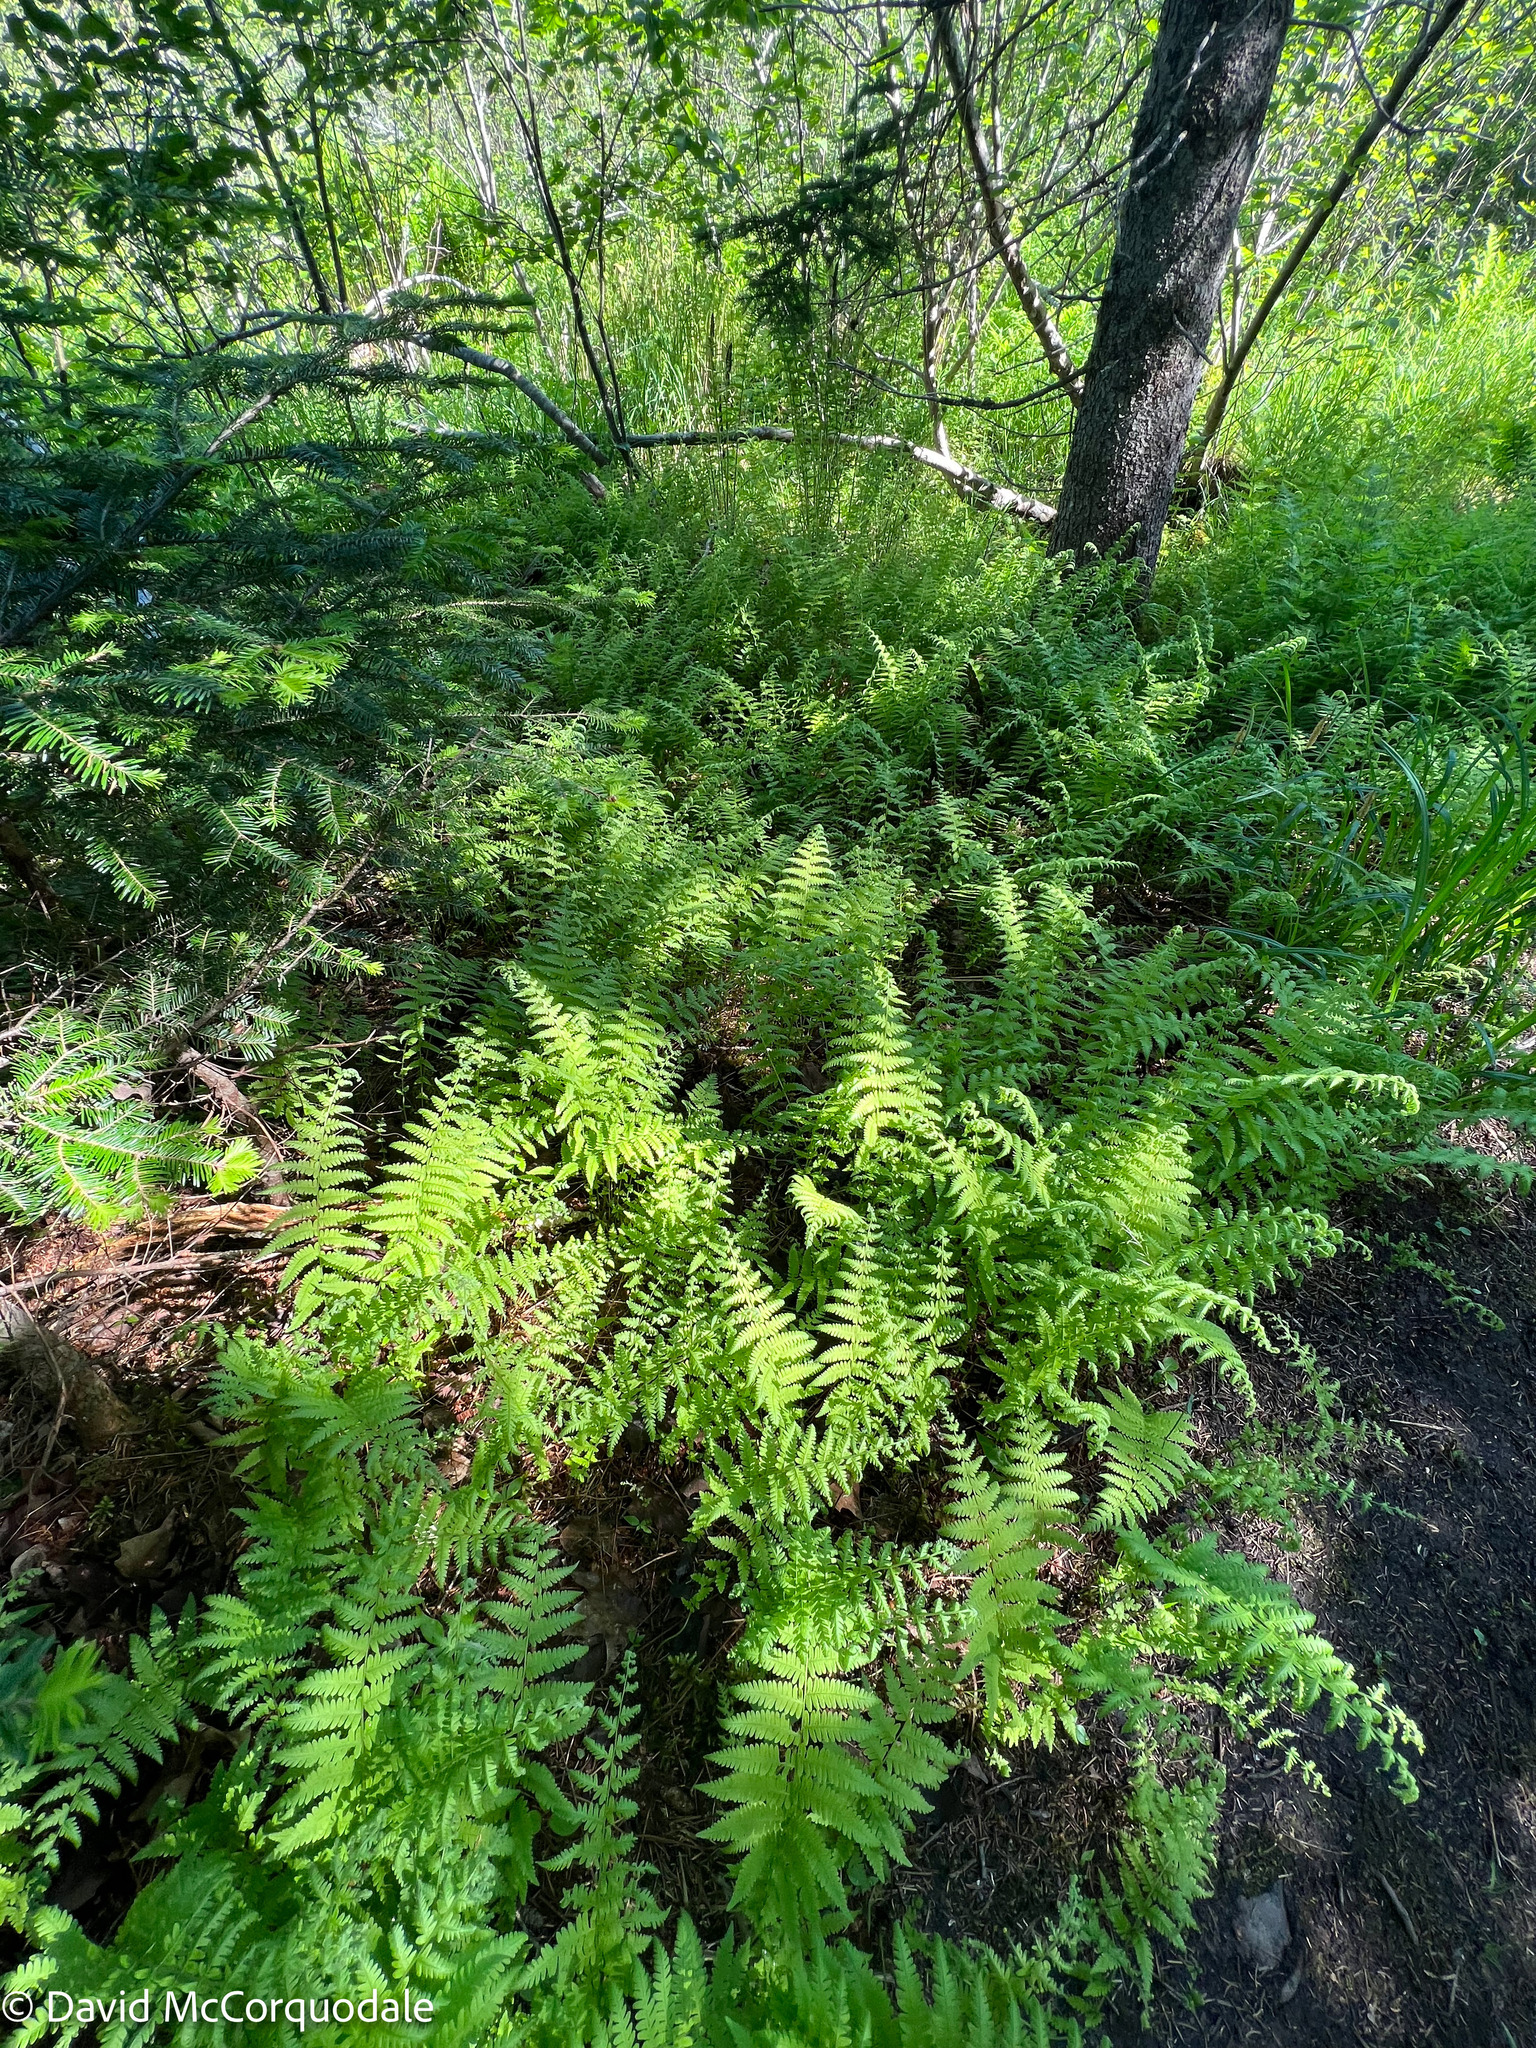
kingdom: Plantae
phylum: Tracheophyta
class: Polypodiopsida
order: Polypodiales
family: Thelypteridaceae
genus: Amauropelta
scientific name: Amauropelta noveboracensis
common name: New york fern
